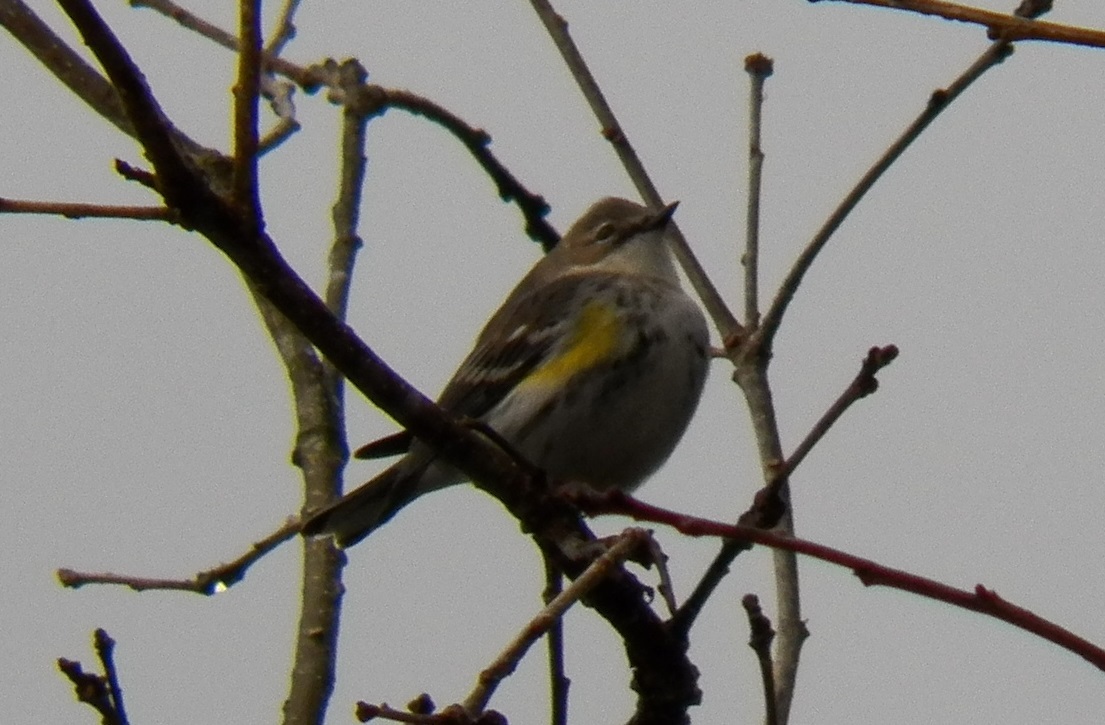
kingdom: Animalia
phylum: Chordata
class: Aves
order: Passeriformes
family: Parulidae
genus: Setophaga
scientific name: Setophaga coronata
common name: Myrtle warbler
